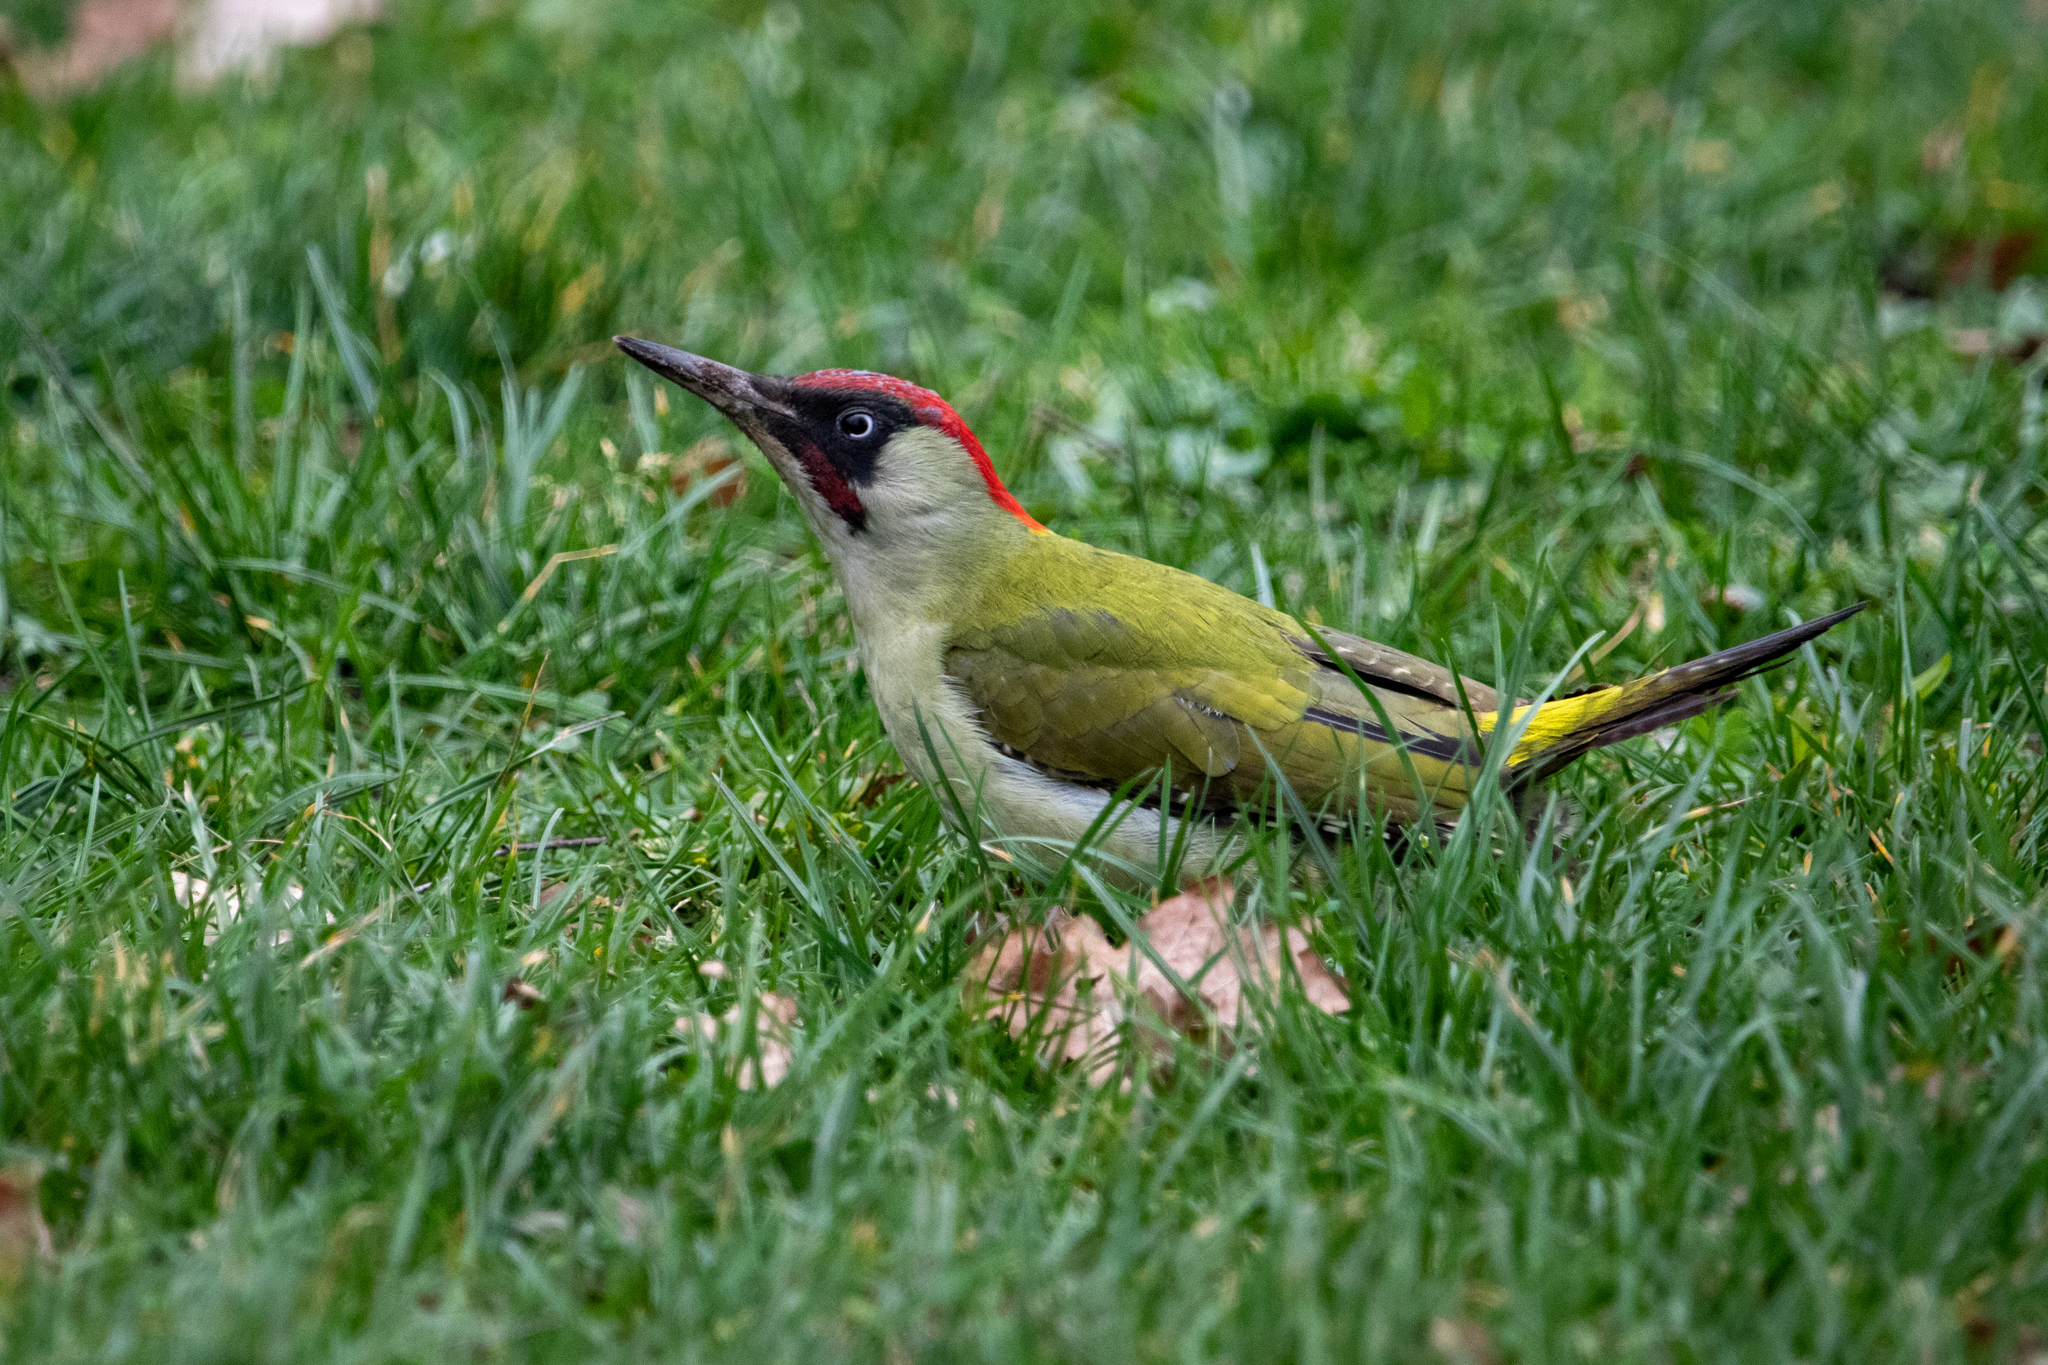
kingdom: Animalia
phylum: Chordata
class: Aves
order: Piciformes
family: Picidae
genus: Picus
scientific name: Picus viridis
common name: European green woodpecker
